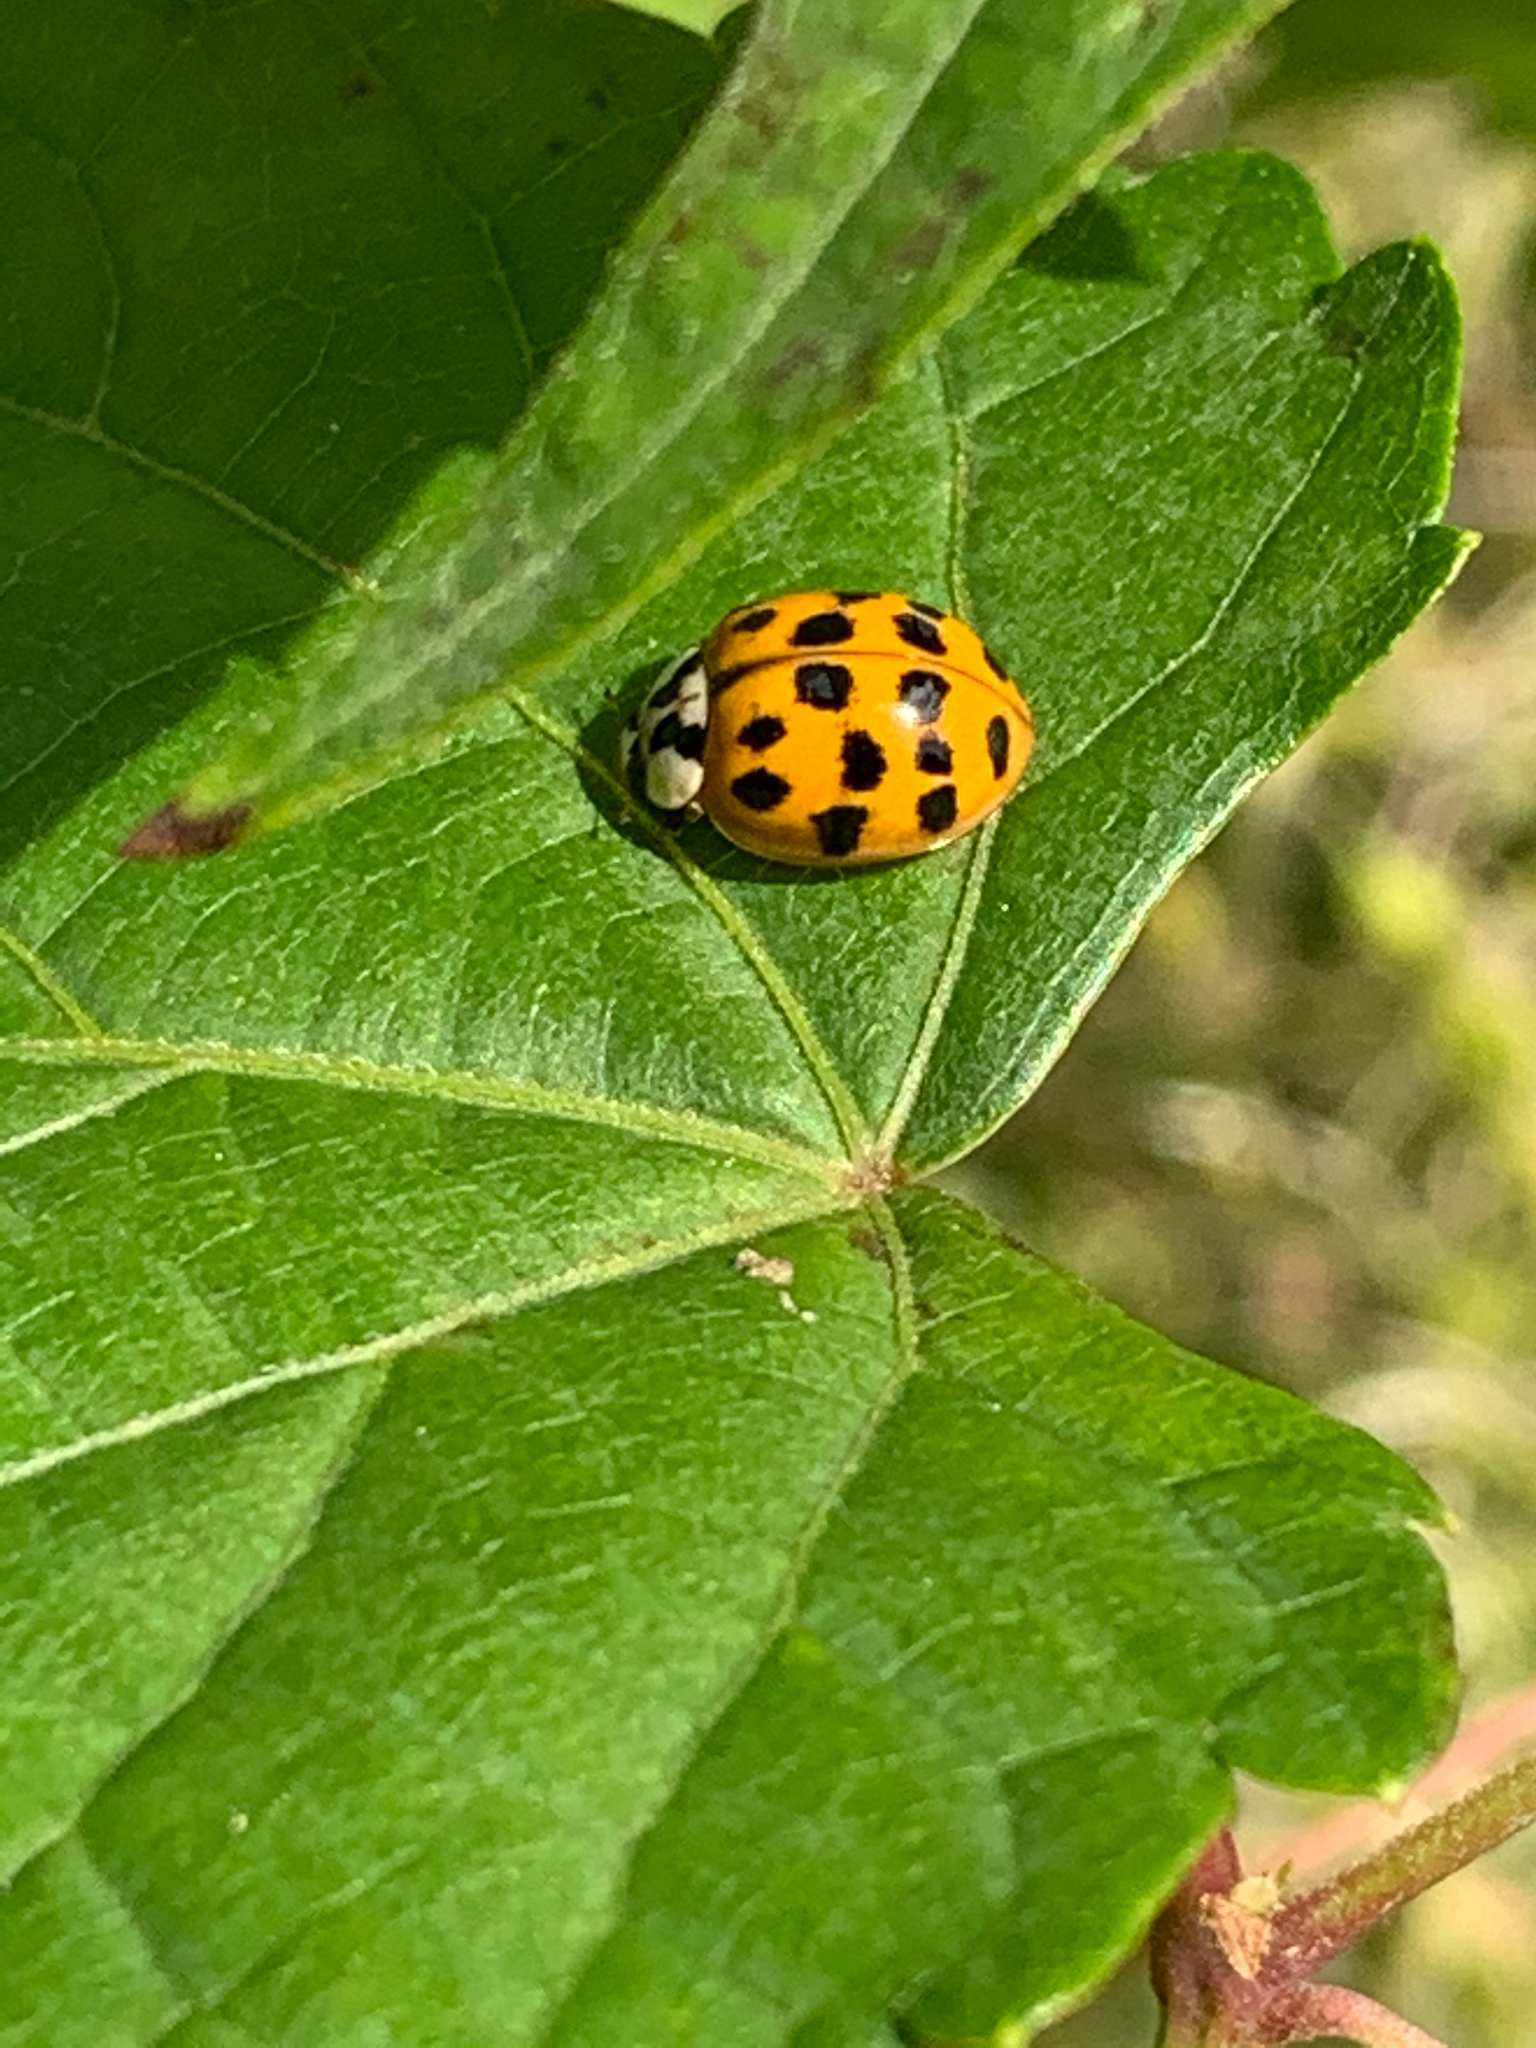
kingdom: Animalia
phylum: Arthropoda
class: Insecta
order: Coleoptera
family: Coccinellidae
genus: Harmonia
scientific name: Harmonia axyridis
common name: Harlequin ladybird
